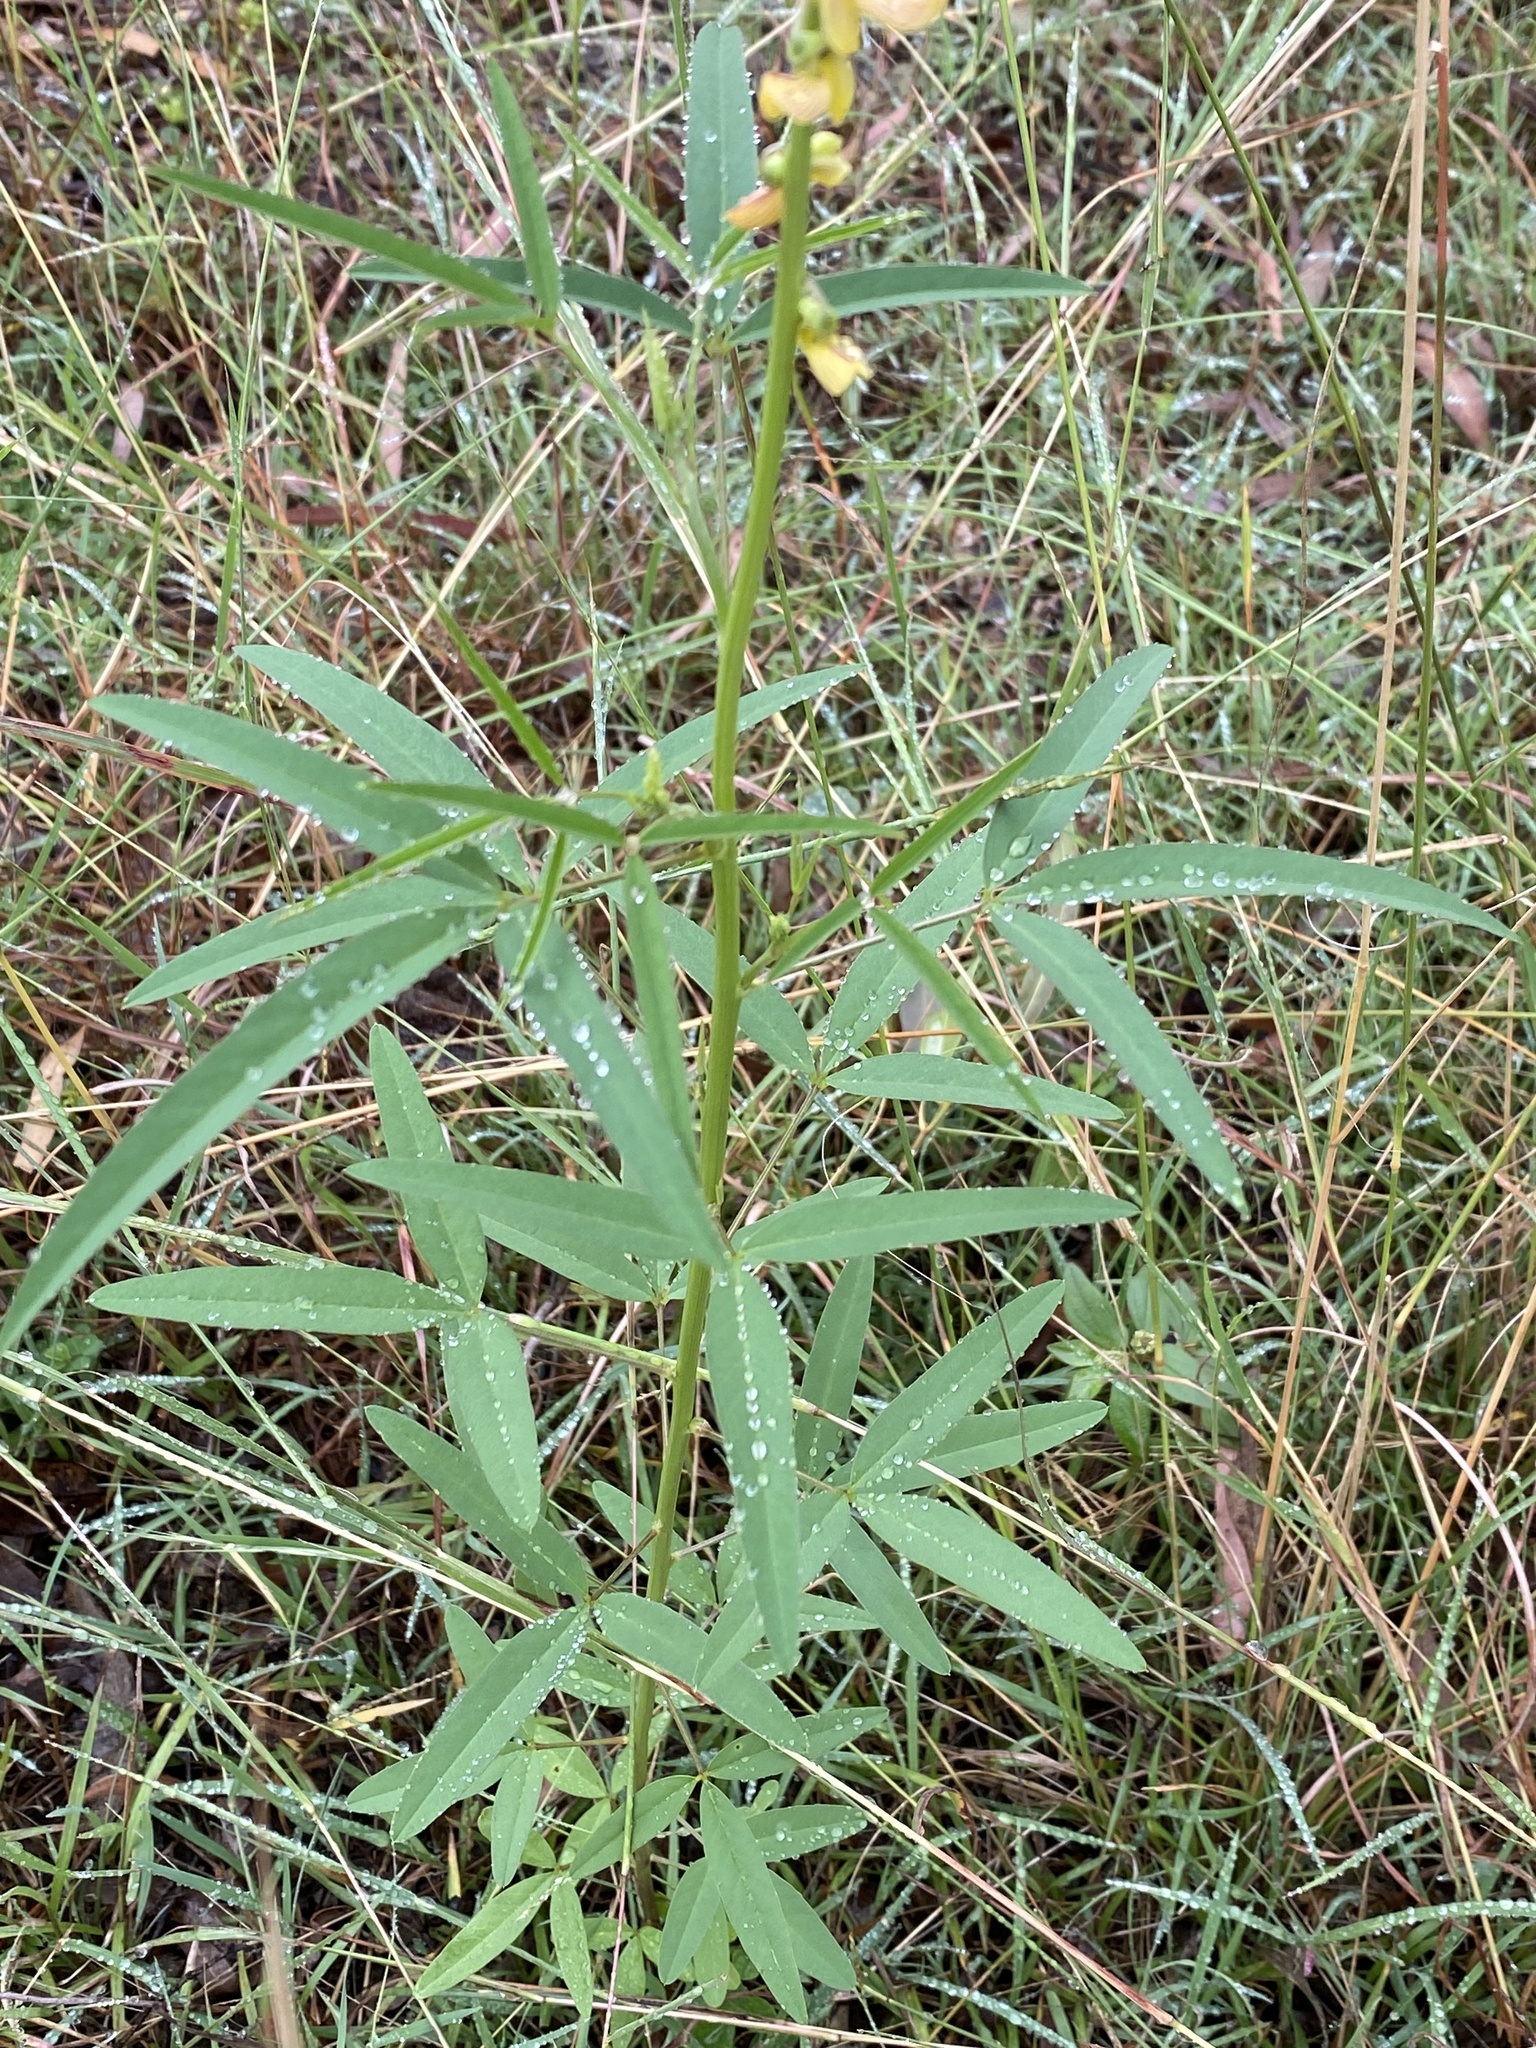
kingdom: Plantae
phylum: Tracheophyta
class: Magnoliopsida
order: Fabales
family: Fabaceae
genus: Crotalaria
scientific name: Crotalaria lanceolata
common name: Lanceleaf rattlebox
